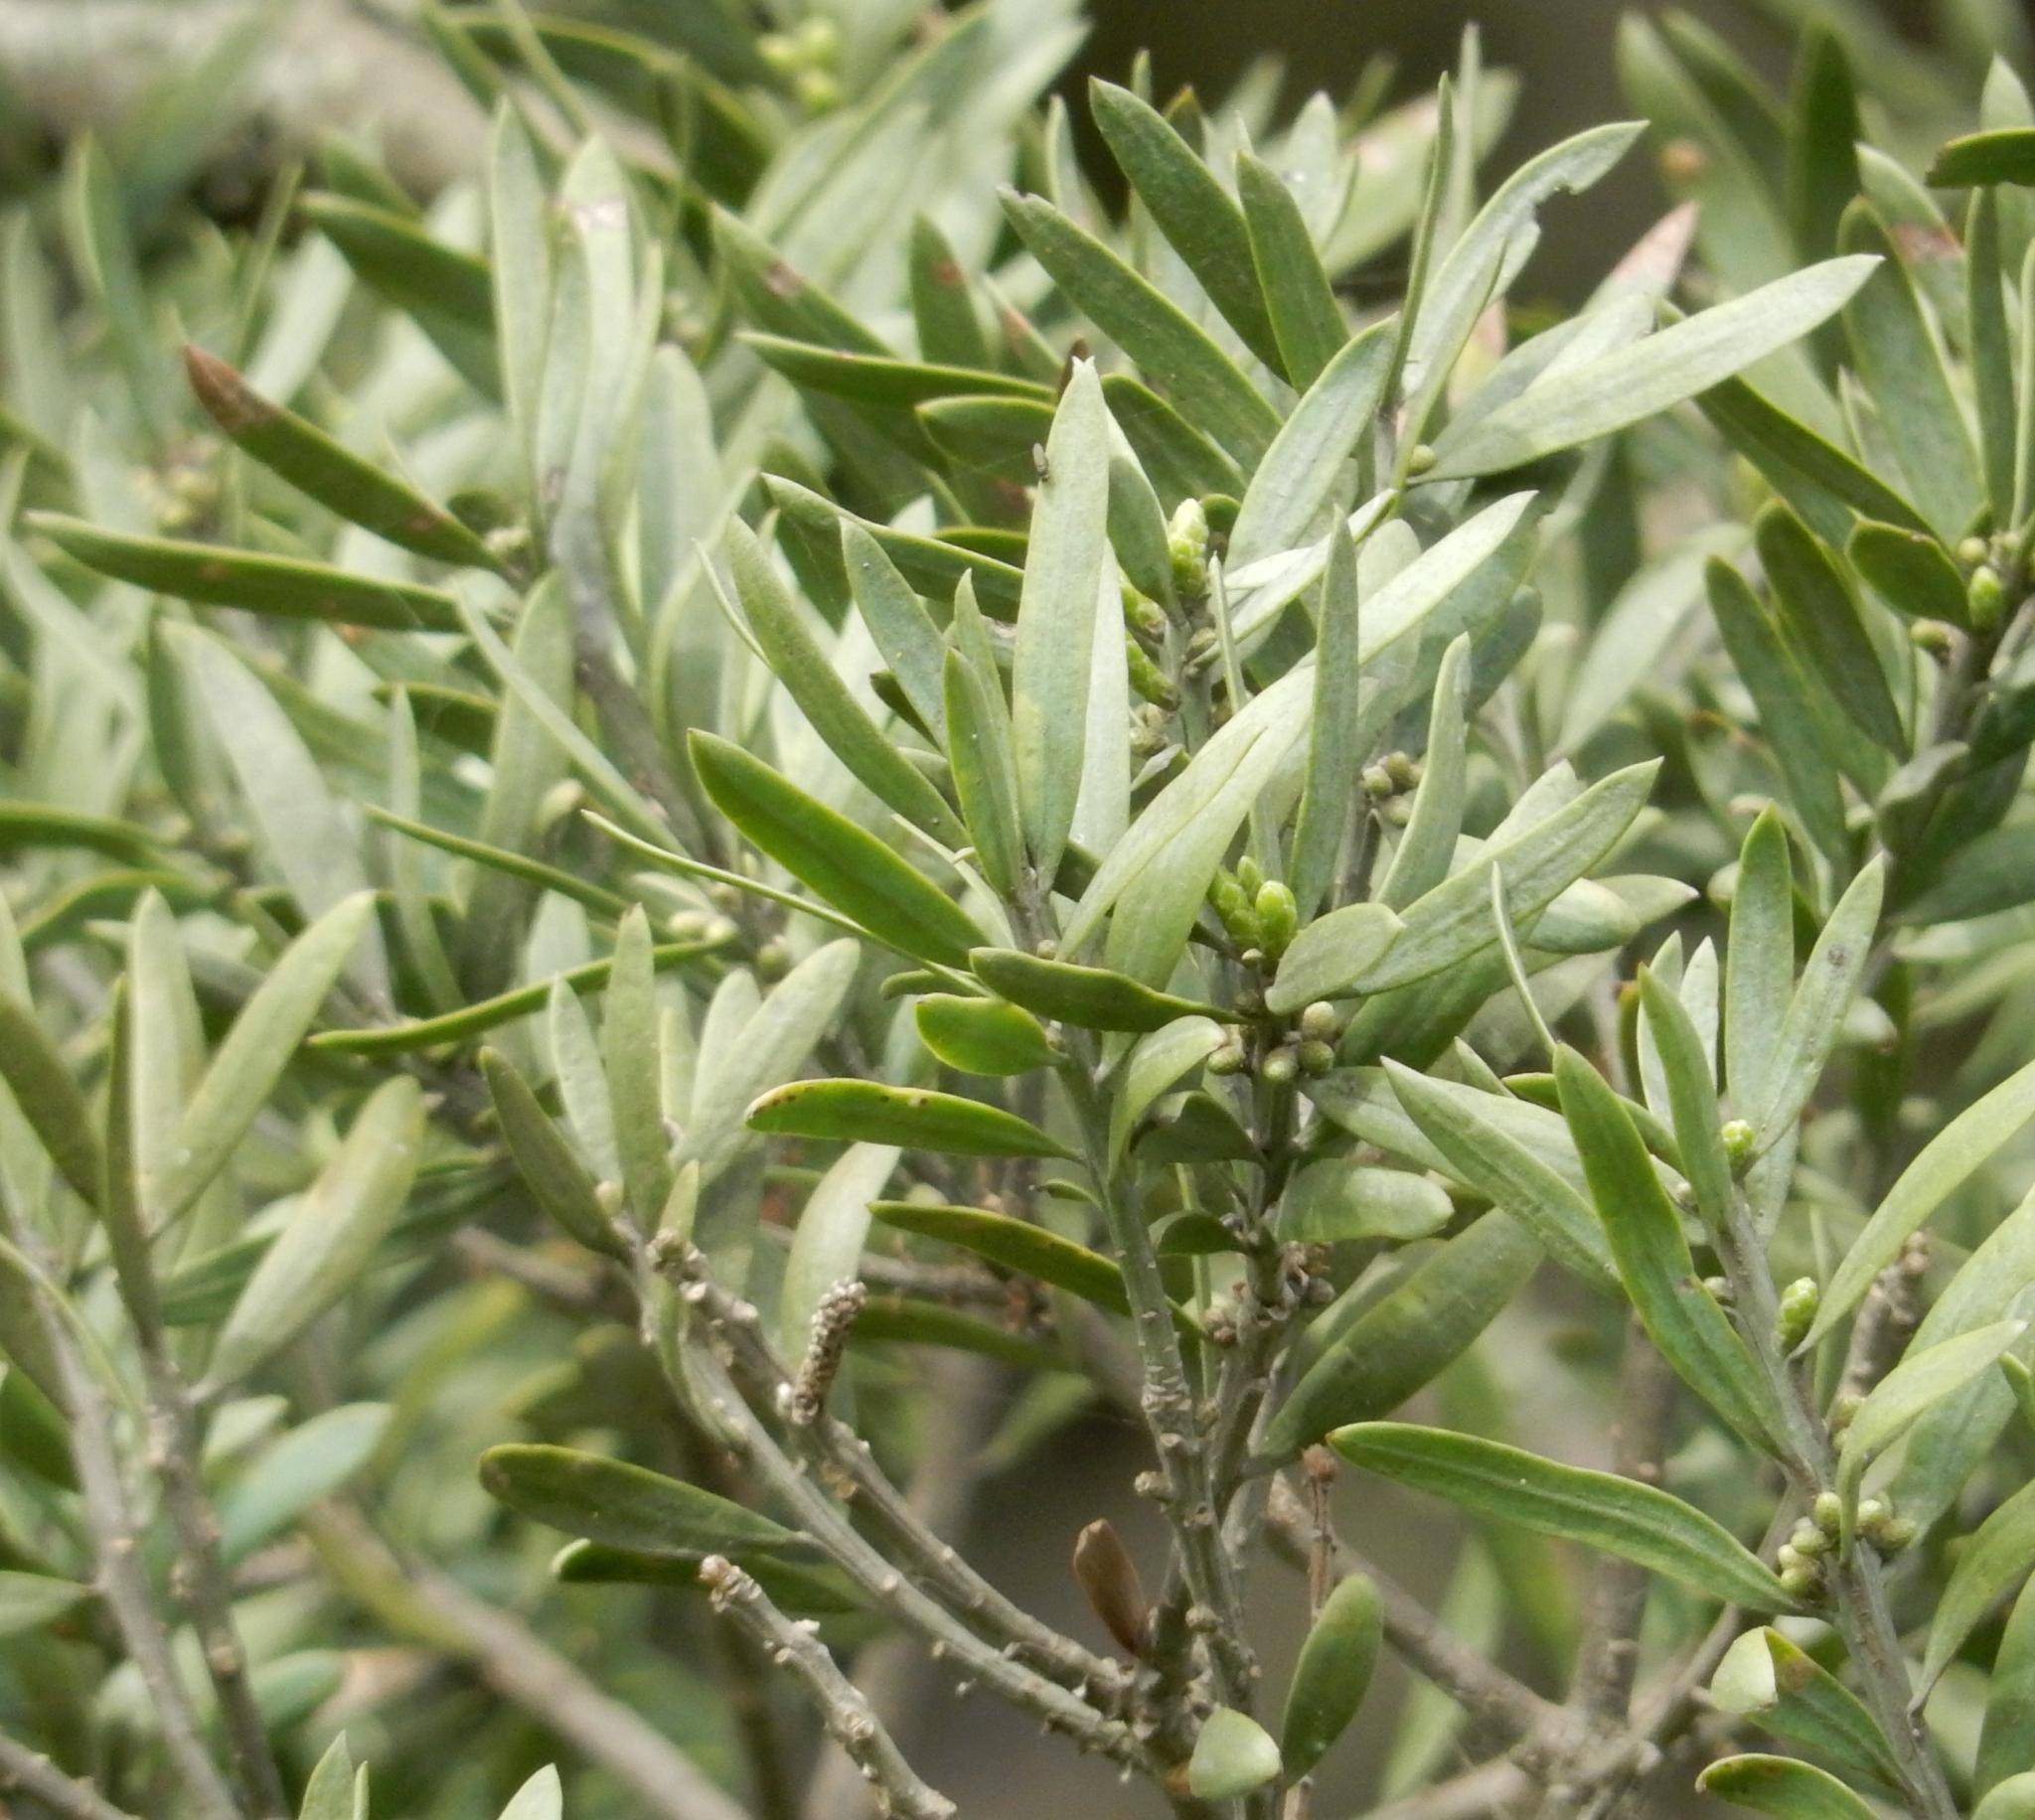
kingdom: Plantae
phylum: Tracheophyta
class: Pinopsida
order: Pinales
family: Podocarpaceae
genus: Afrocarpus
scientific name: Afrocarpus falcatus
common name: Bastard yellowwood
